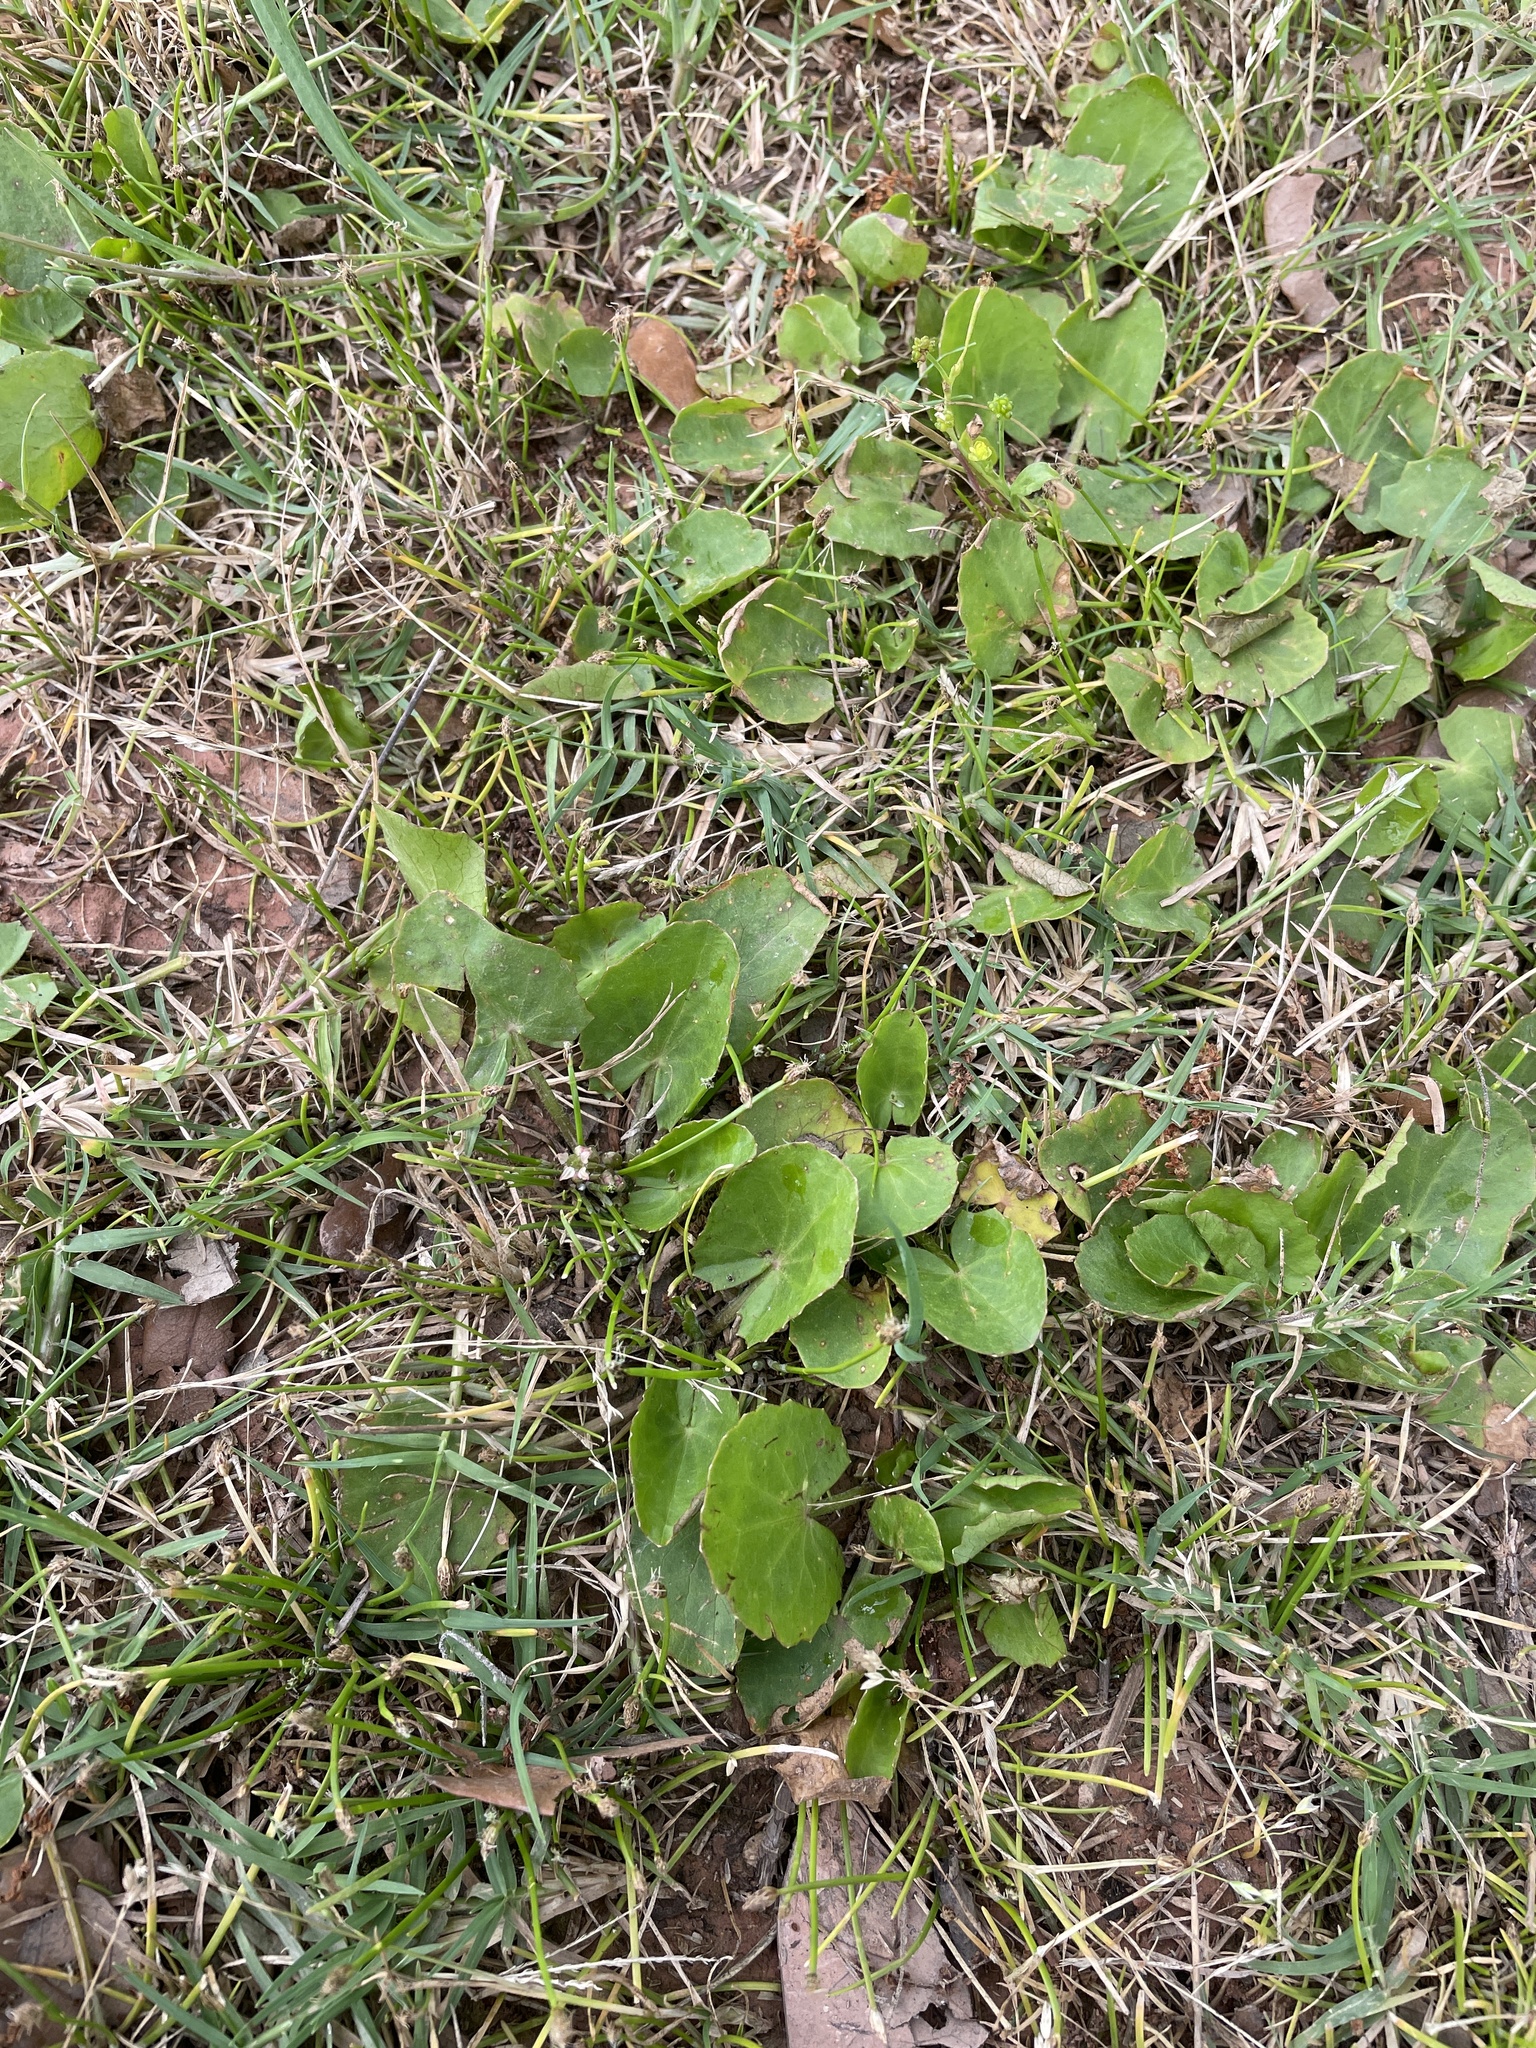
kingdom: Plantae
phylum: Tracheophyta
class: Magnoliopsida
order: Apiales
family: Apiaceae
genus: Centella
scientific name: Centella erecta
